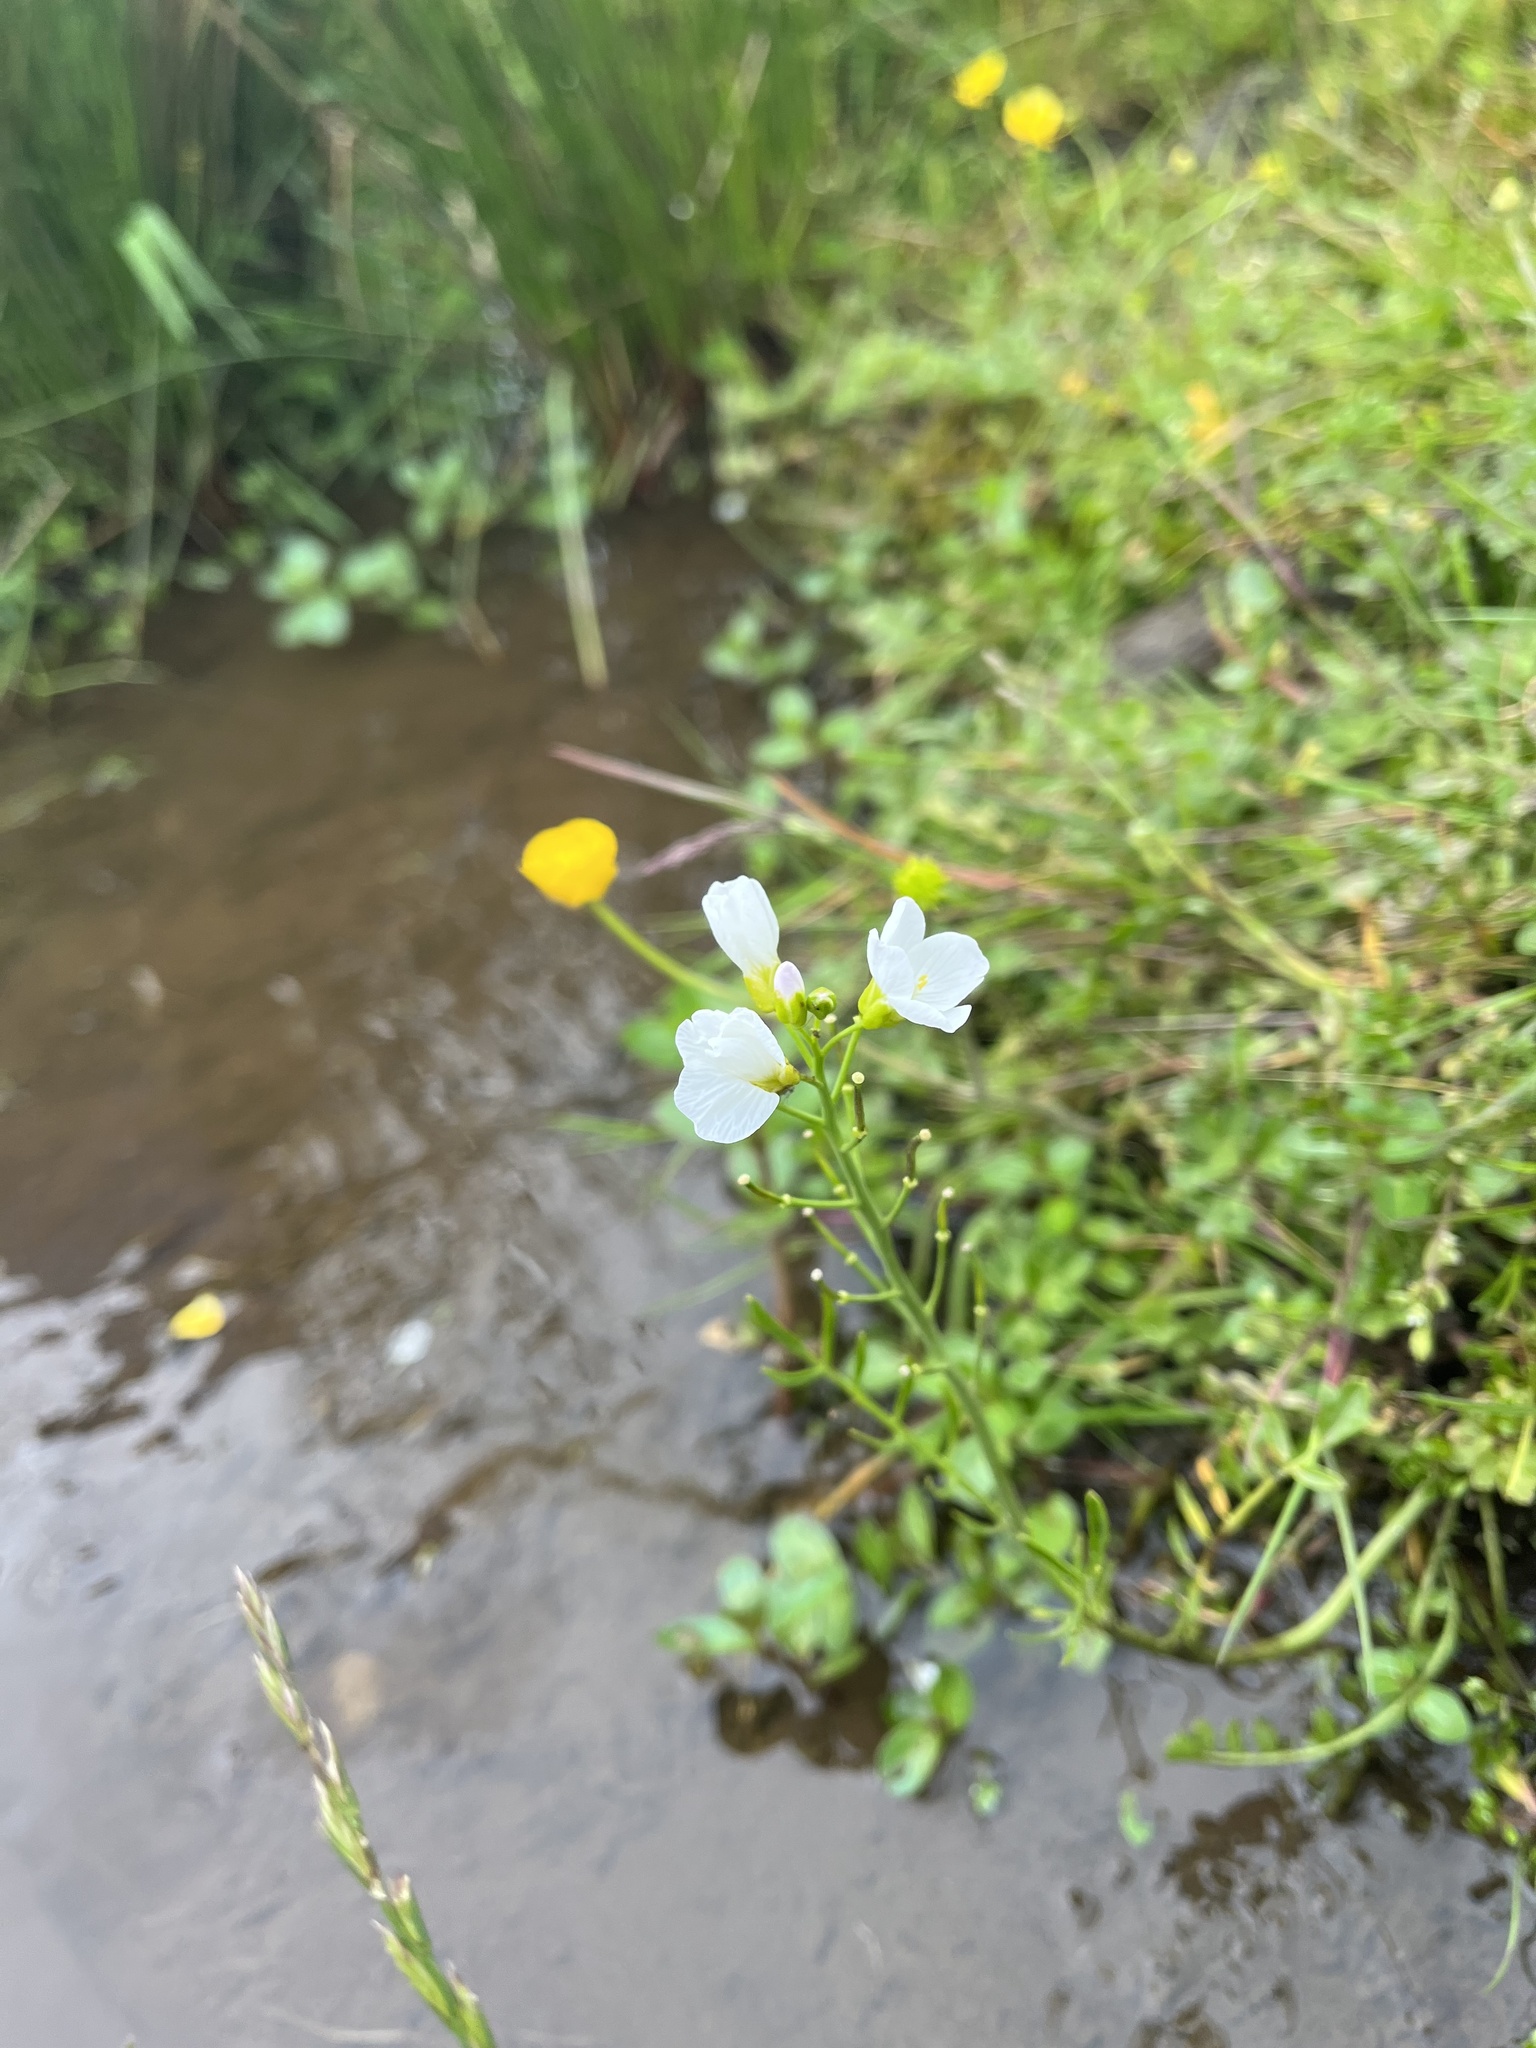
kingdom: Plantae
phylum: Tracheophyta
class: Magnoliopsida
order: Brassicales
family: Brassicaceae
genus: Cardamine
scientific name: Cardamine pratensis
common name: Cuckoo flower
